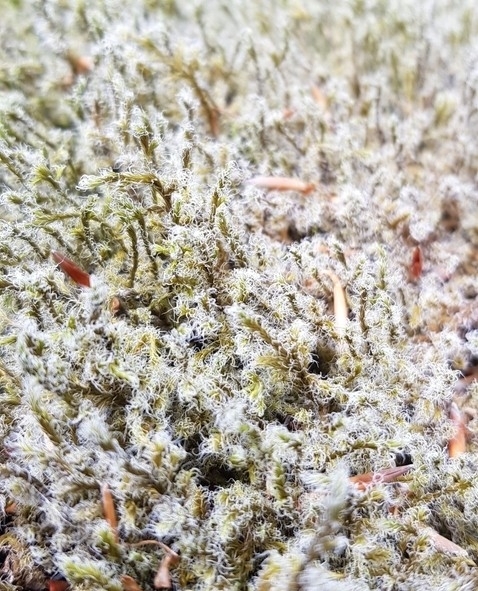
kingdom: Plantae
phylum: Bryophyta
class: Bryopsida
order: Grimmiales
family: Grimmiaceae
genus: Racomitrium
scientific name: Racomitrium lanuginosum
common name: Hoary rock moss
